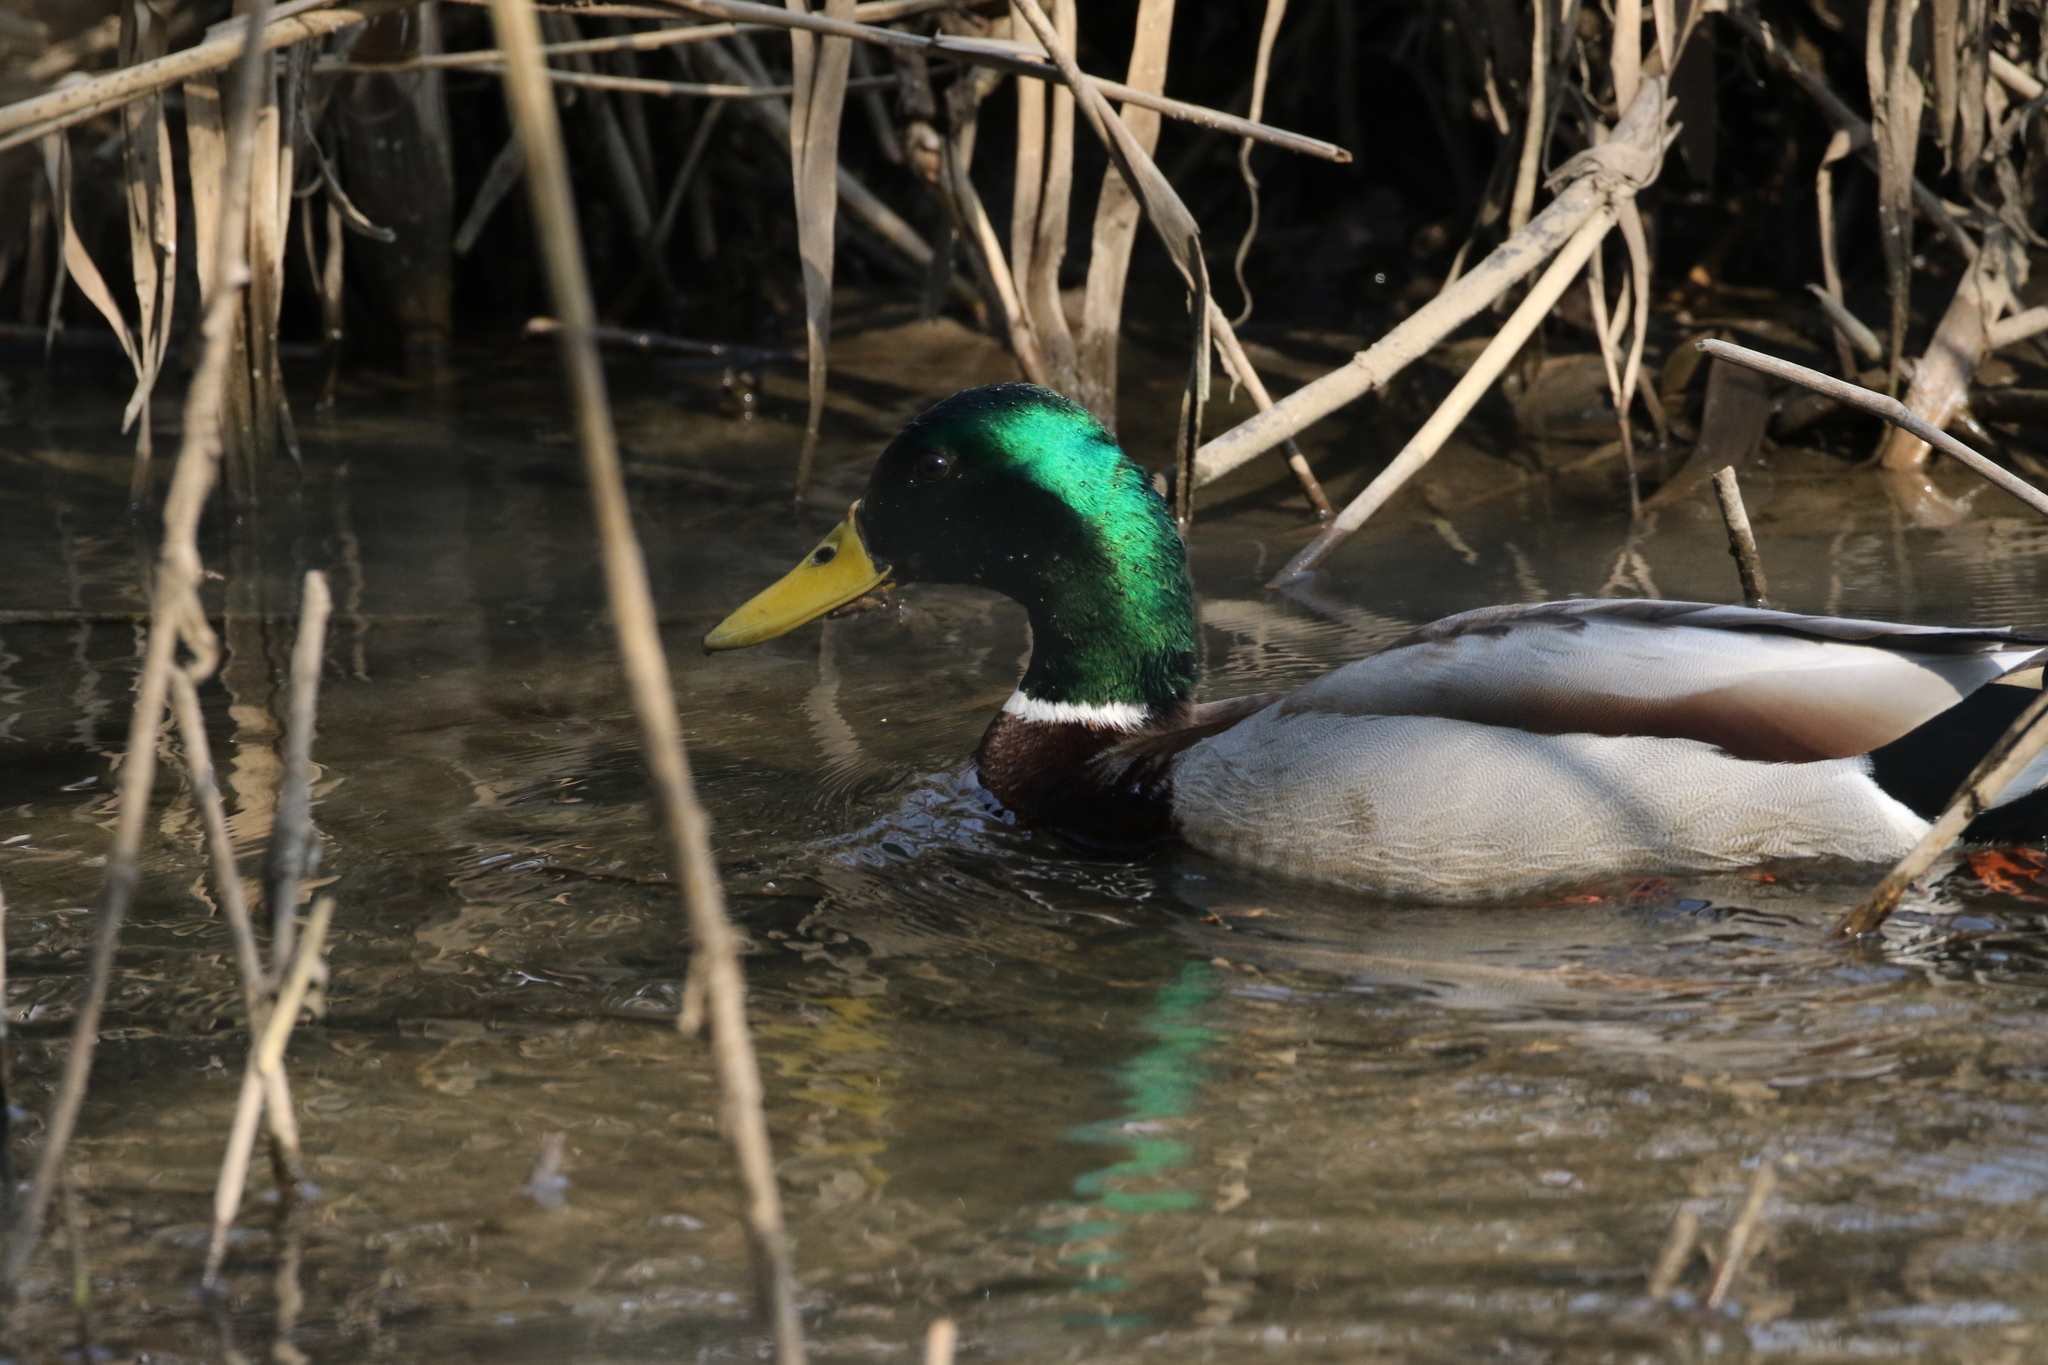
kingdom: Animalia
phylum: Chordata
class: Aves
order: Anseriformes
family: Anatidae
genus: Anas
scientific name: Anas platyrhynchos
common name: Mallard
